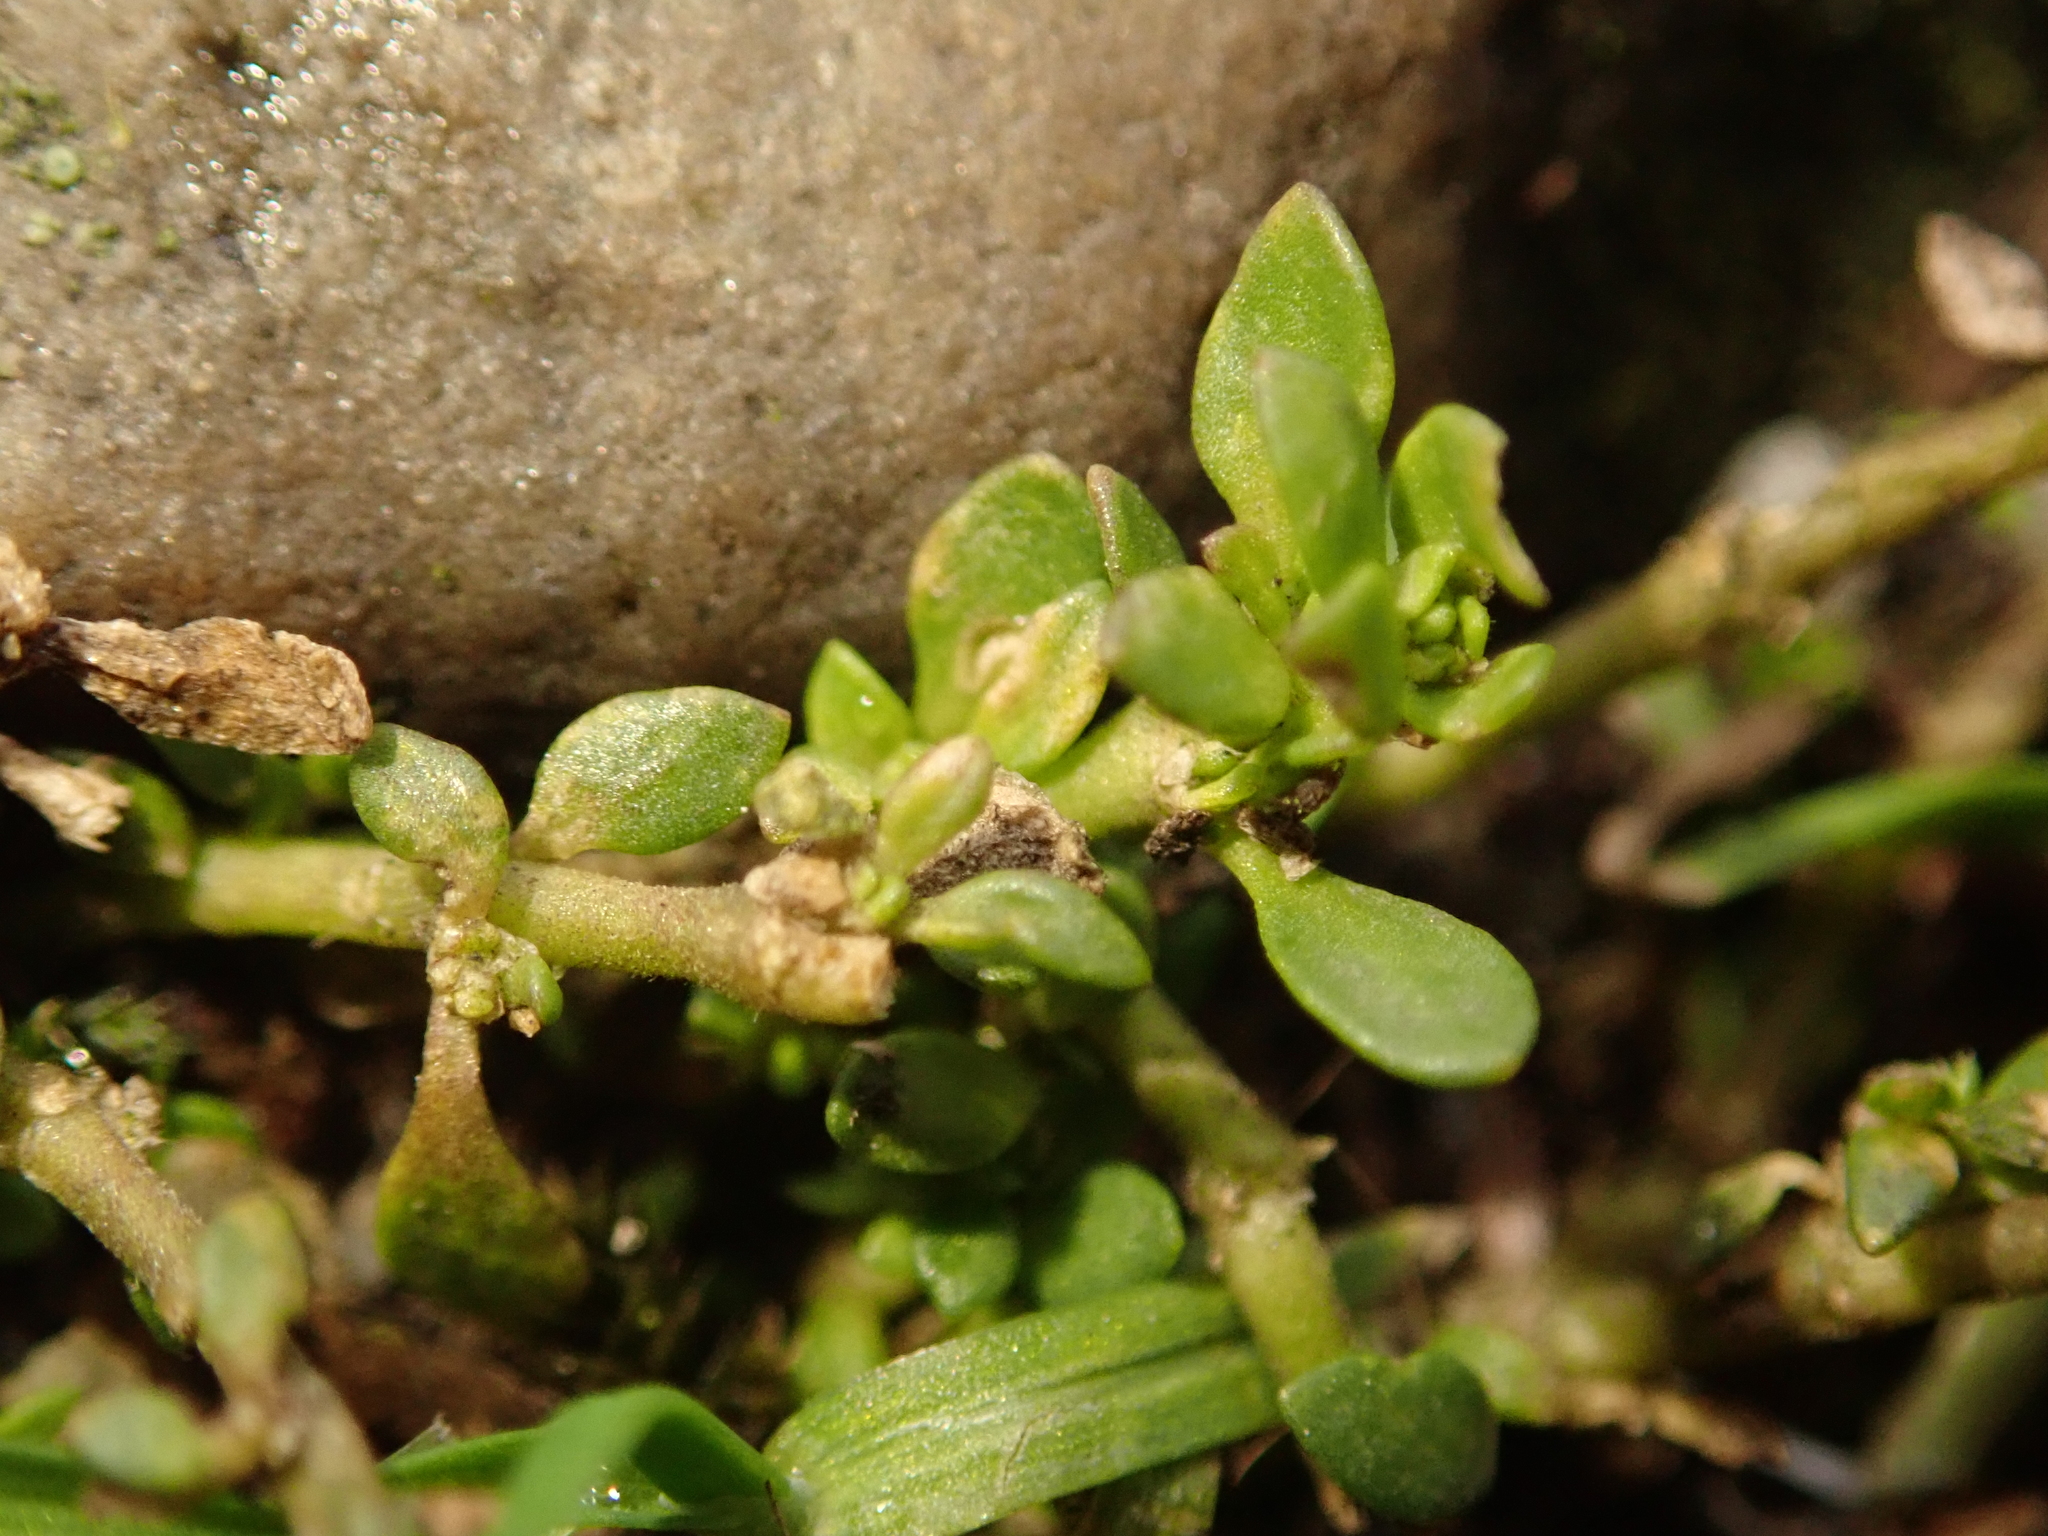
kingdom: Plantae
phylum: Tracheophyta
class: Magnoliopsida
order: Caryophyllales
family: Caryophyllaceae
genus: Herniaria
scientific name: Herniaria glabra
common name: Smooth rupturewort
